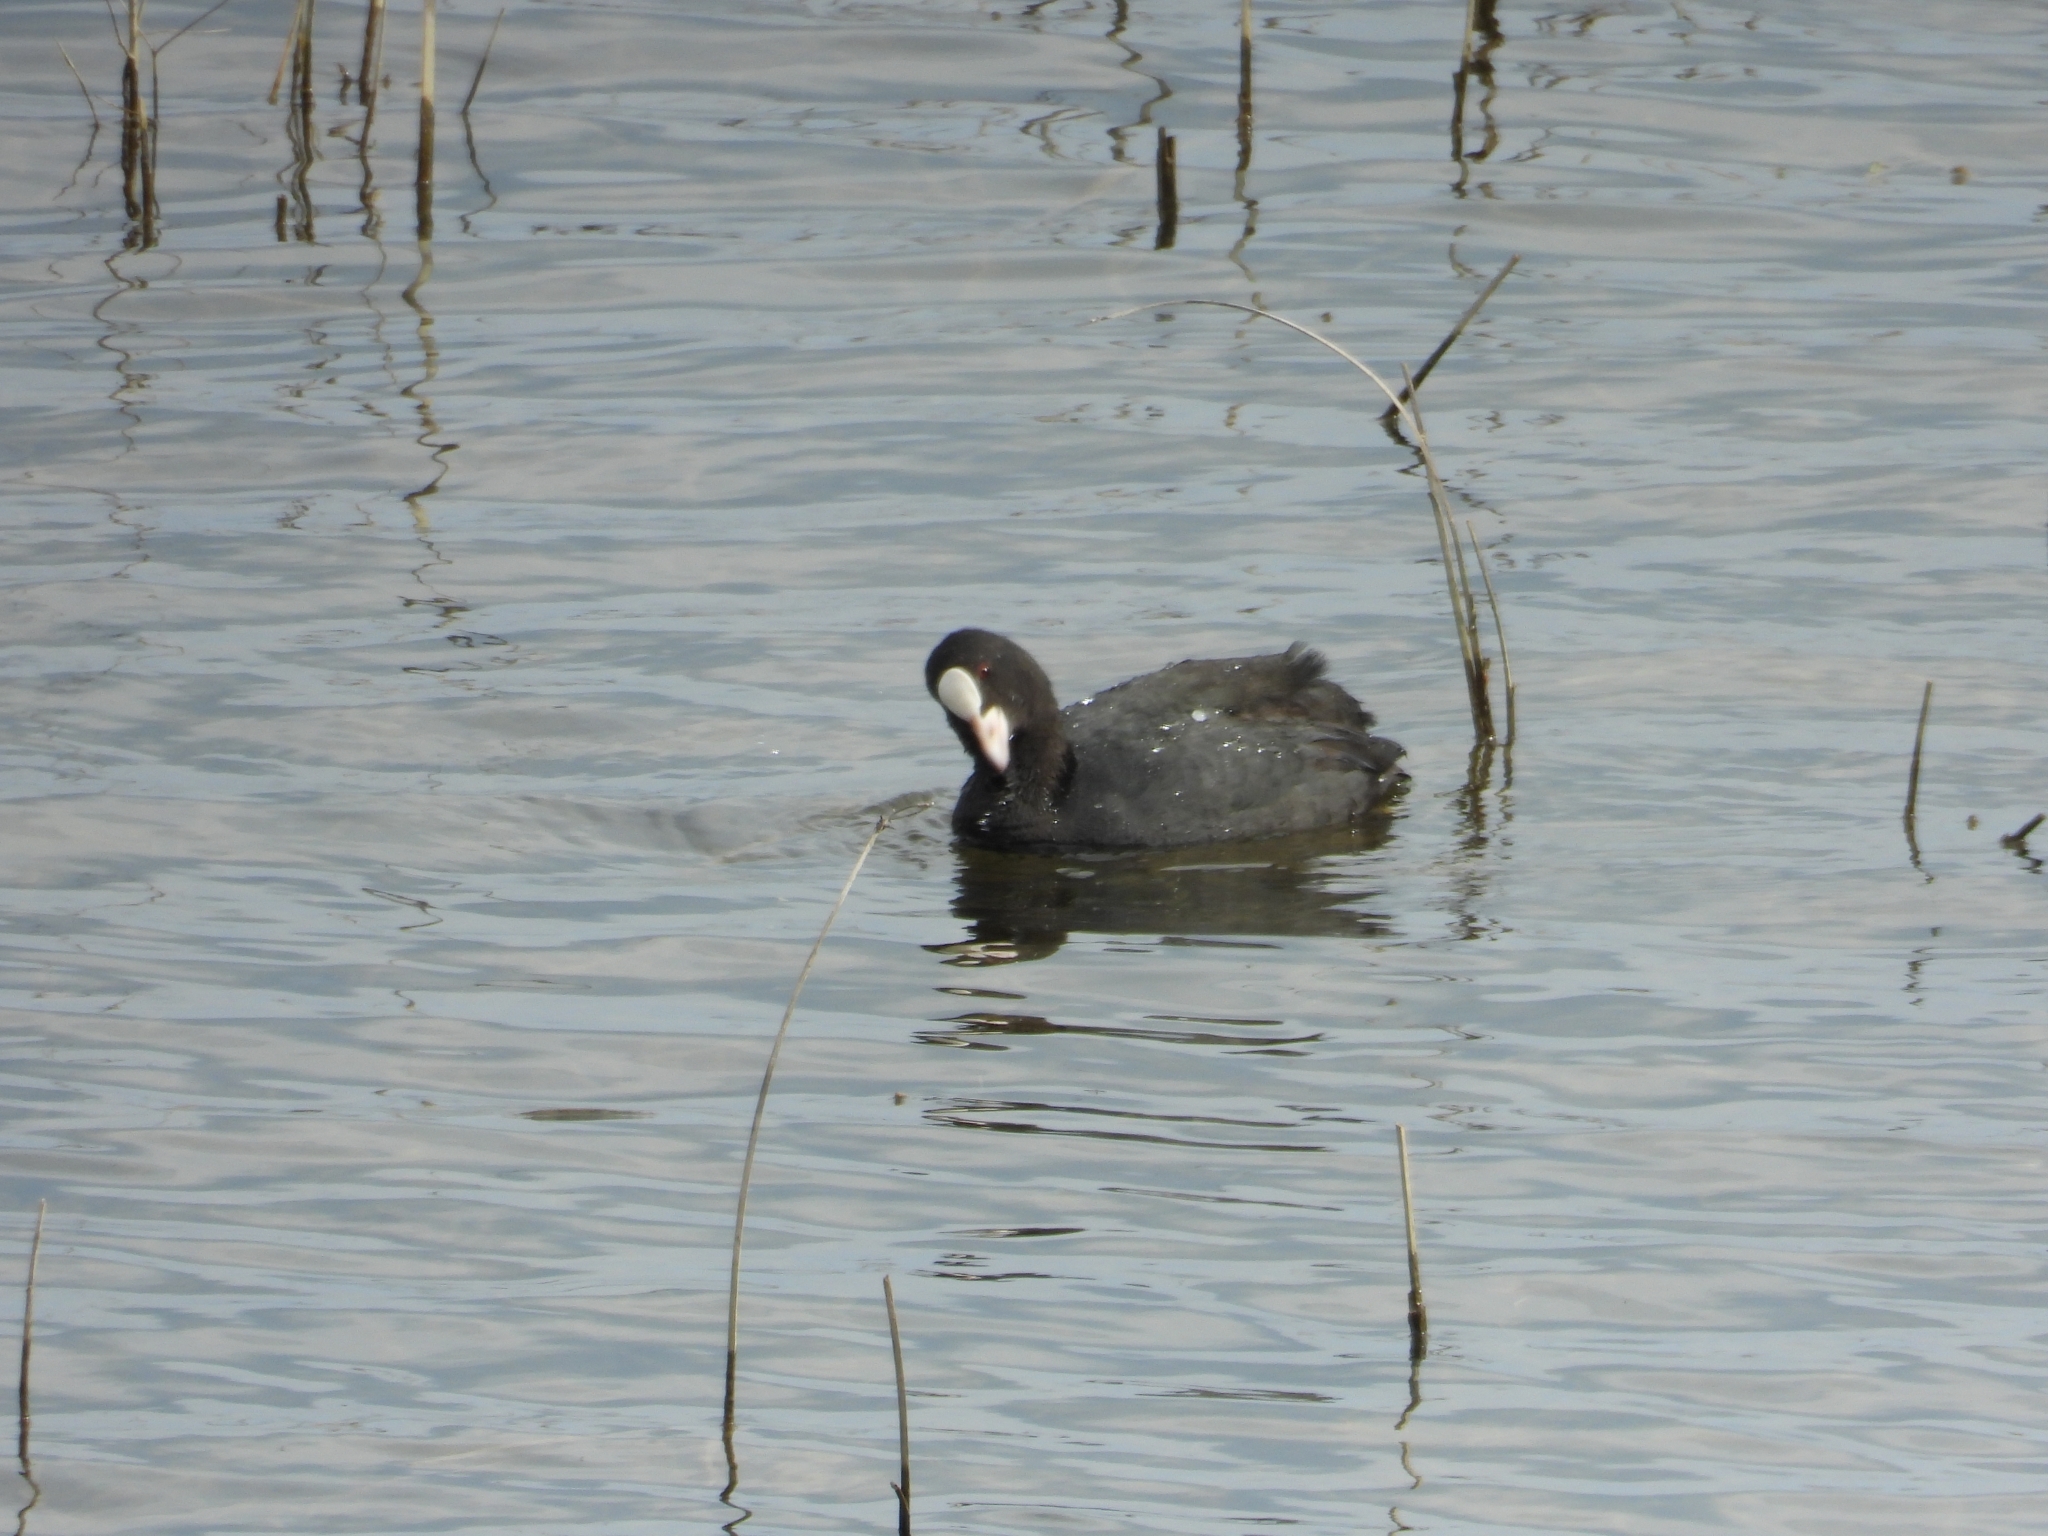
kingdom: Animalia
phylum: Chordata
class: Aves
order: Gruiformes
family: Rallidae
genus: Fulica
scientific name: Fulica atra
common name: Eurasian coot
